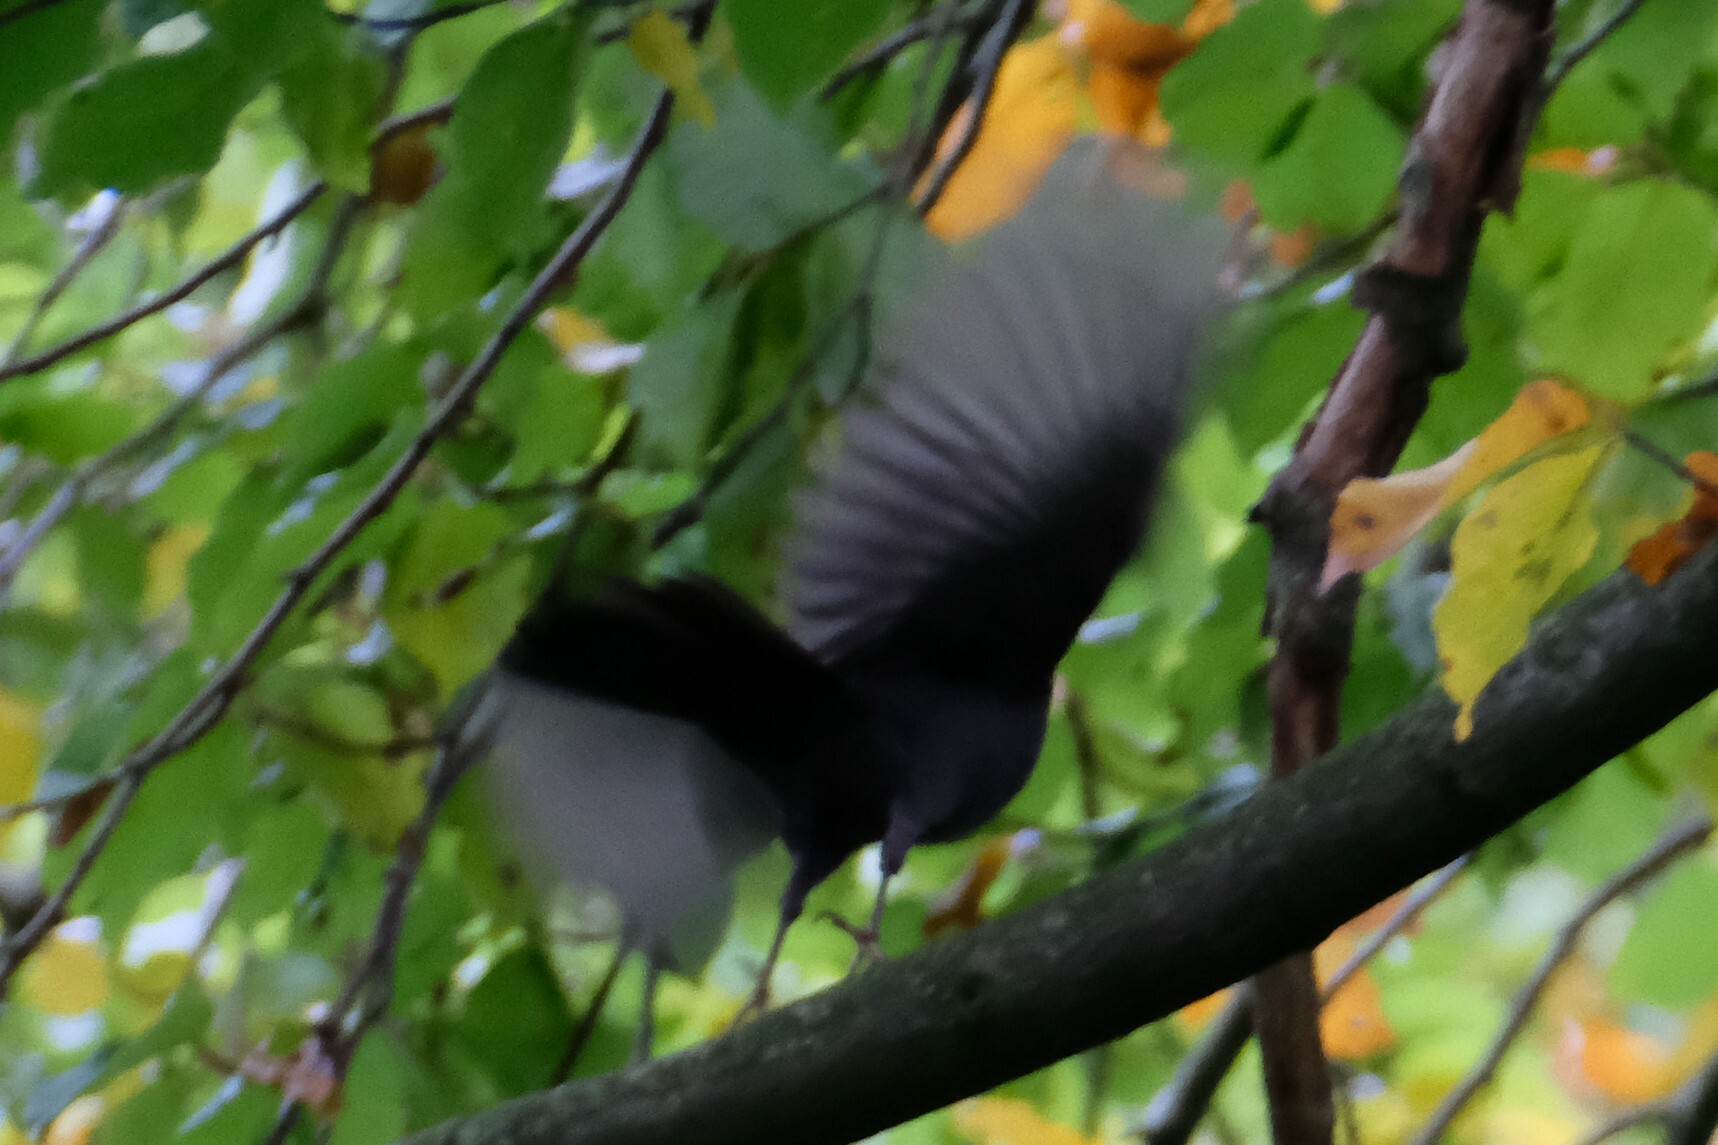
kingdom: Animalia
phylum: Chordata
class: Aves
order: Passeriformes
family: Turdidae
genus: Turdus
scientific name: Turdus merula
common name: Common blackbird
